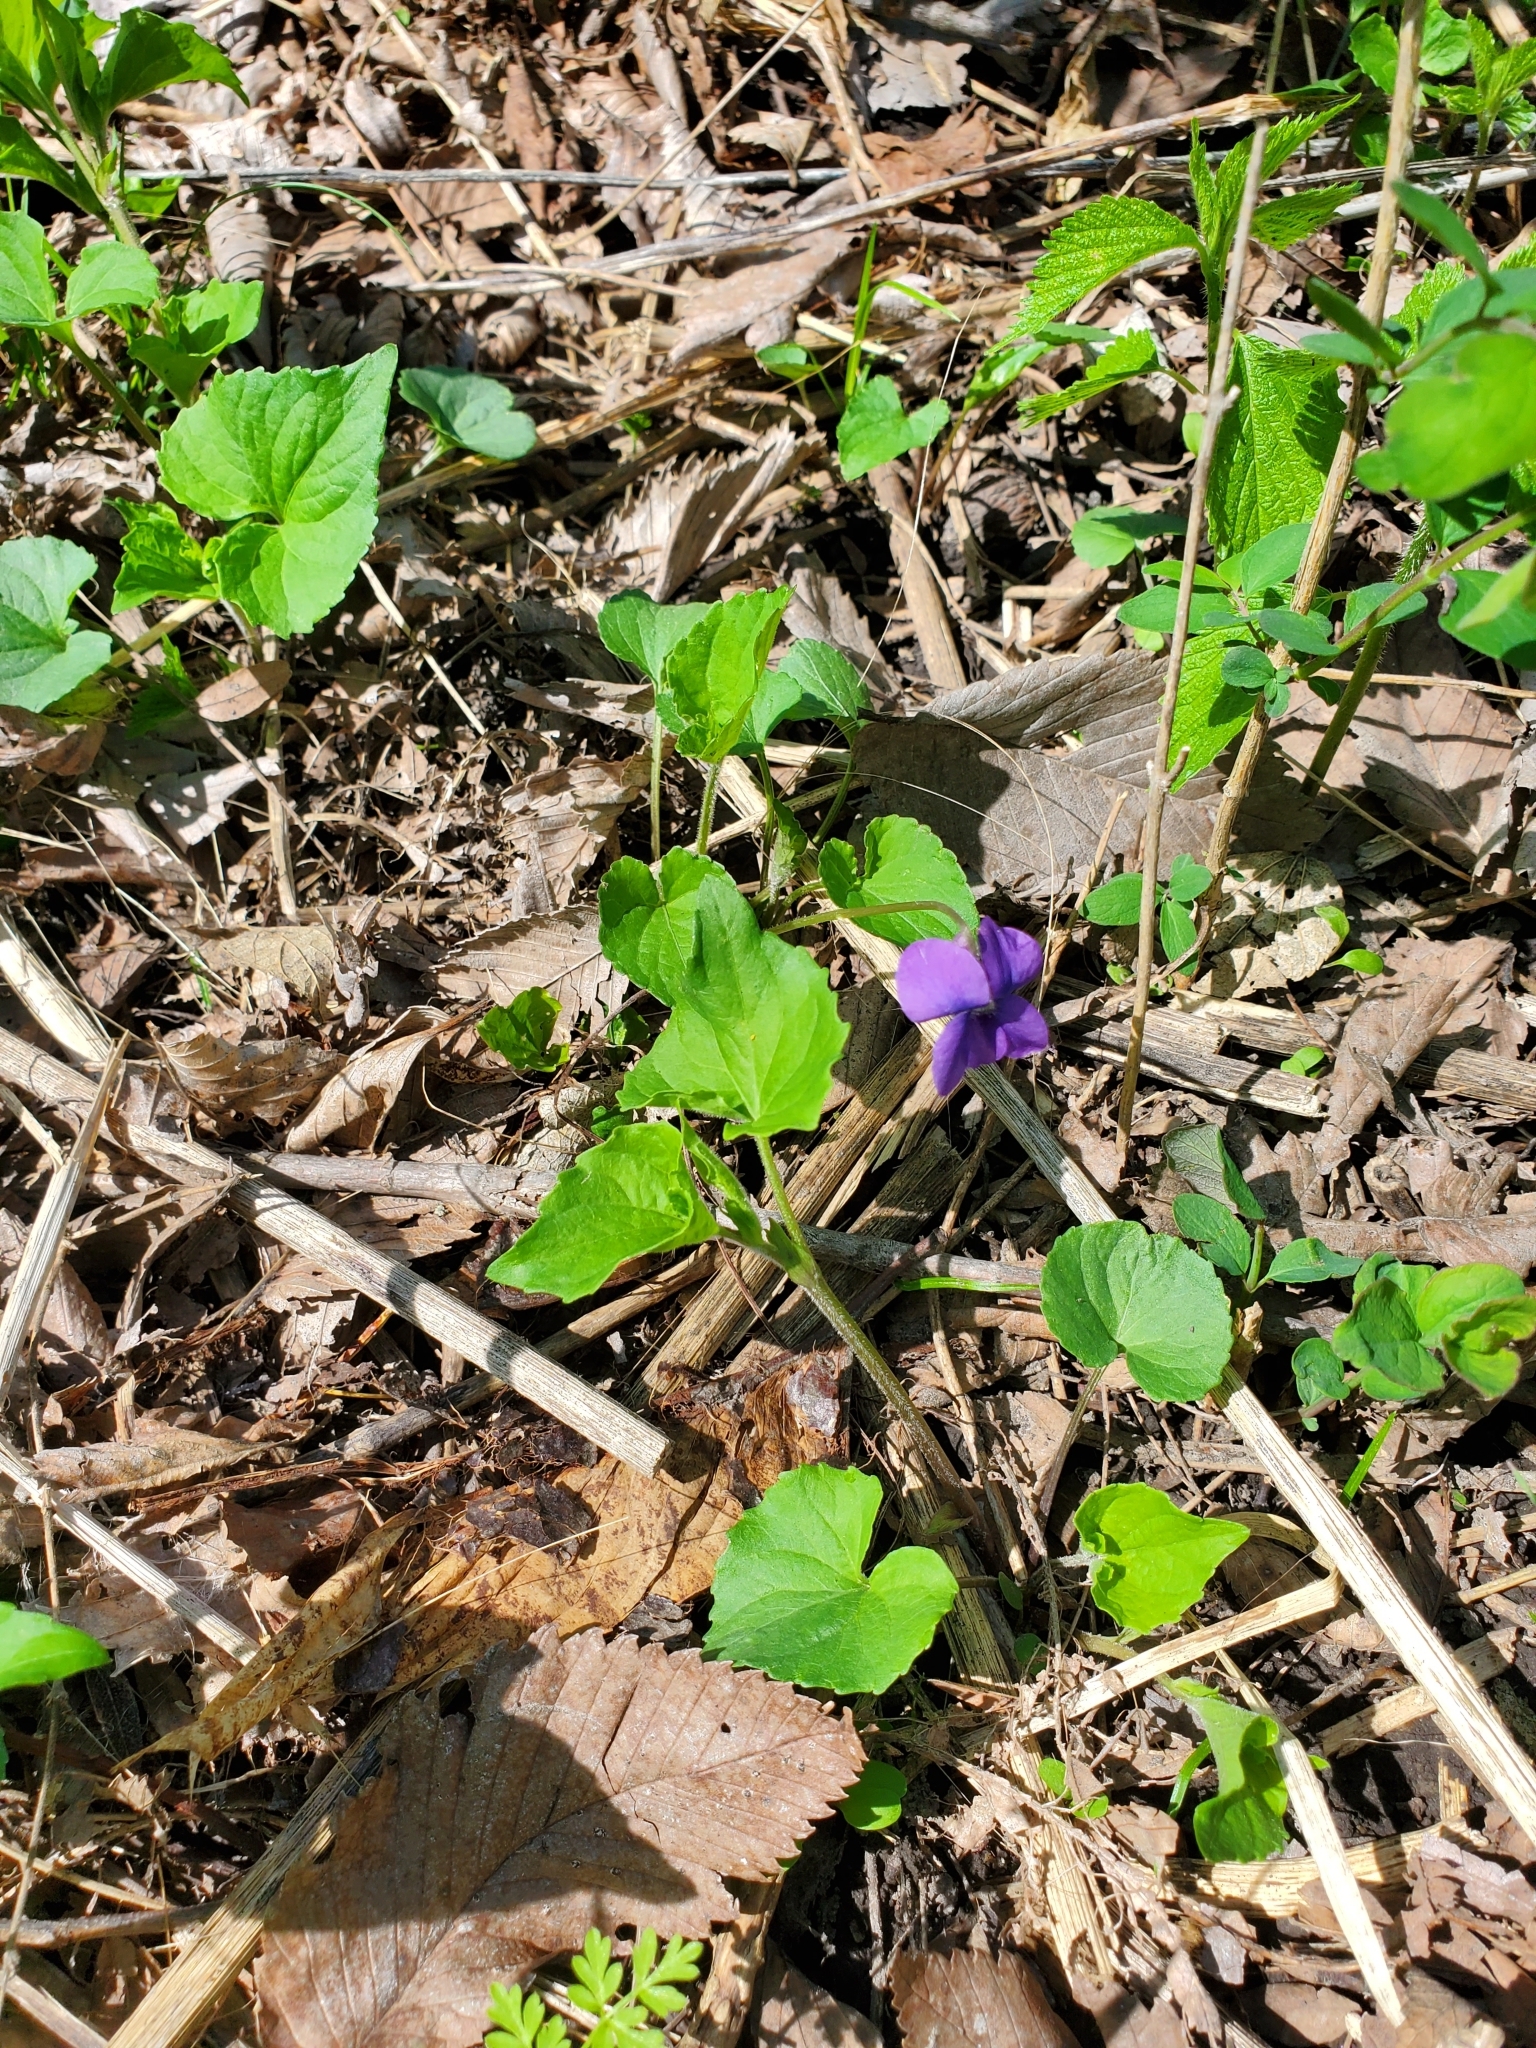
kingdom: Plantae
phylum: Tracheophyta
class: Magnoliopsida
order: Malpighiales
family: Violaceae
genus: Viola
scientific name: Viola sororia
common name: Dooryard violet
